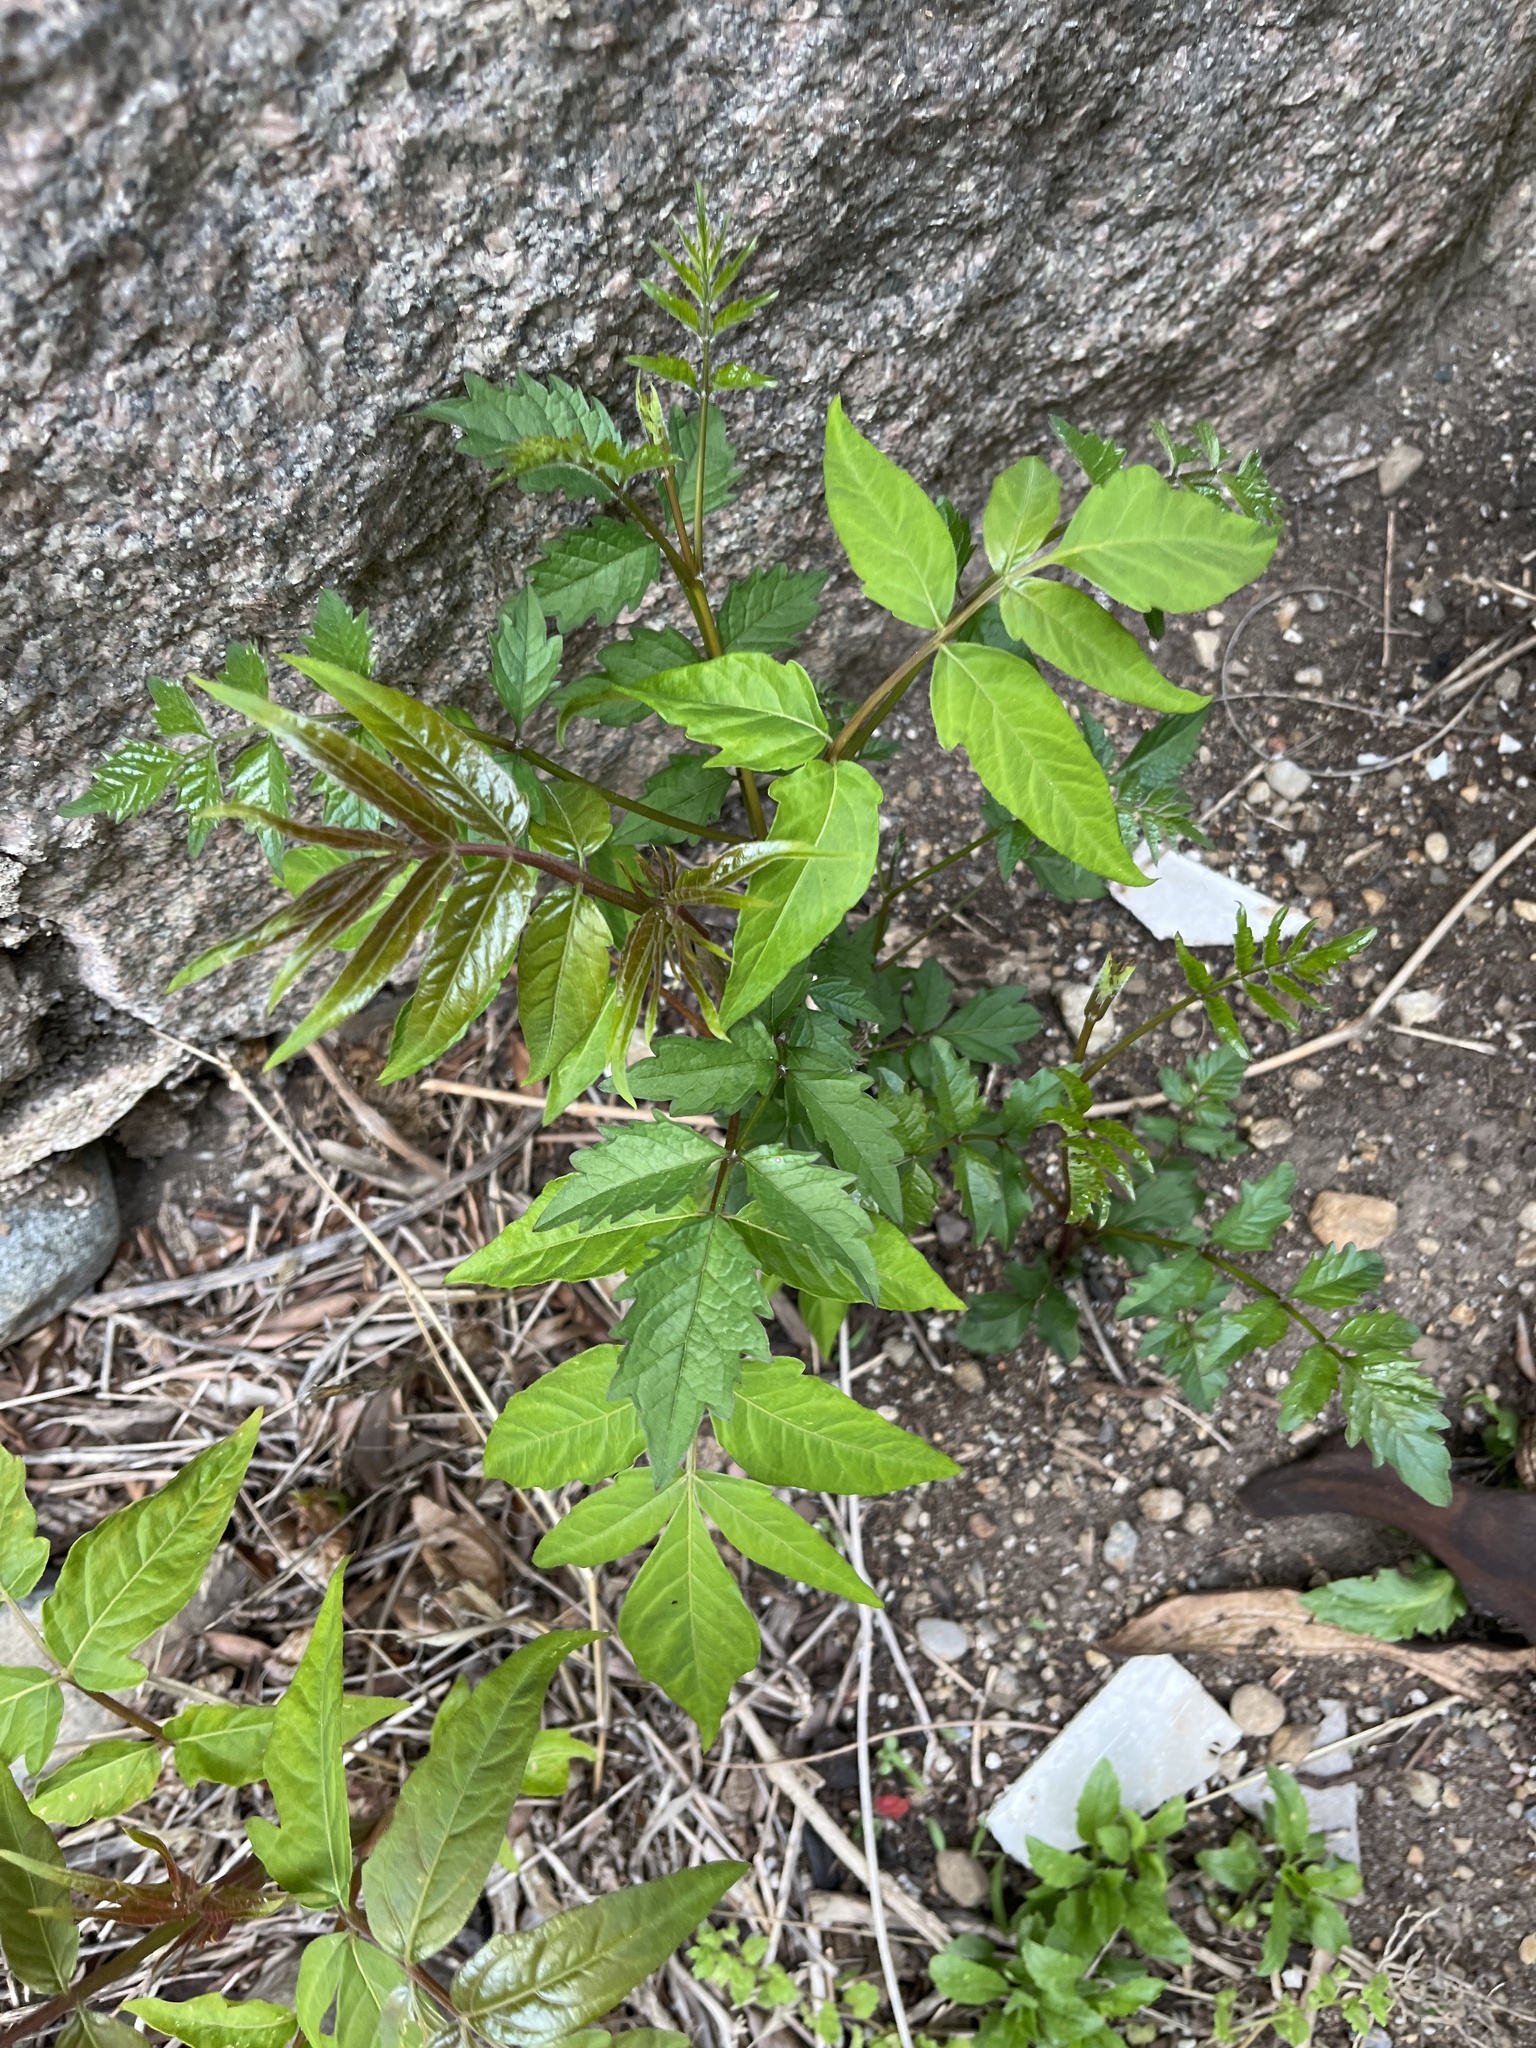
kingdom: Plantae
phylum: Tracheophyta
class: Magnoliopsida
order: Sapindales
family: Simaroubaceae
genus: Ailanthus
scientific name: Ailanthus altissima
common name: Tree-of-heaven
